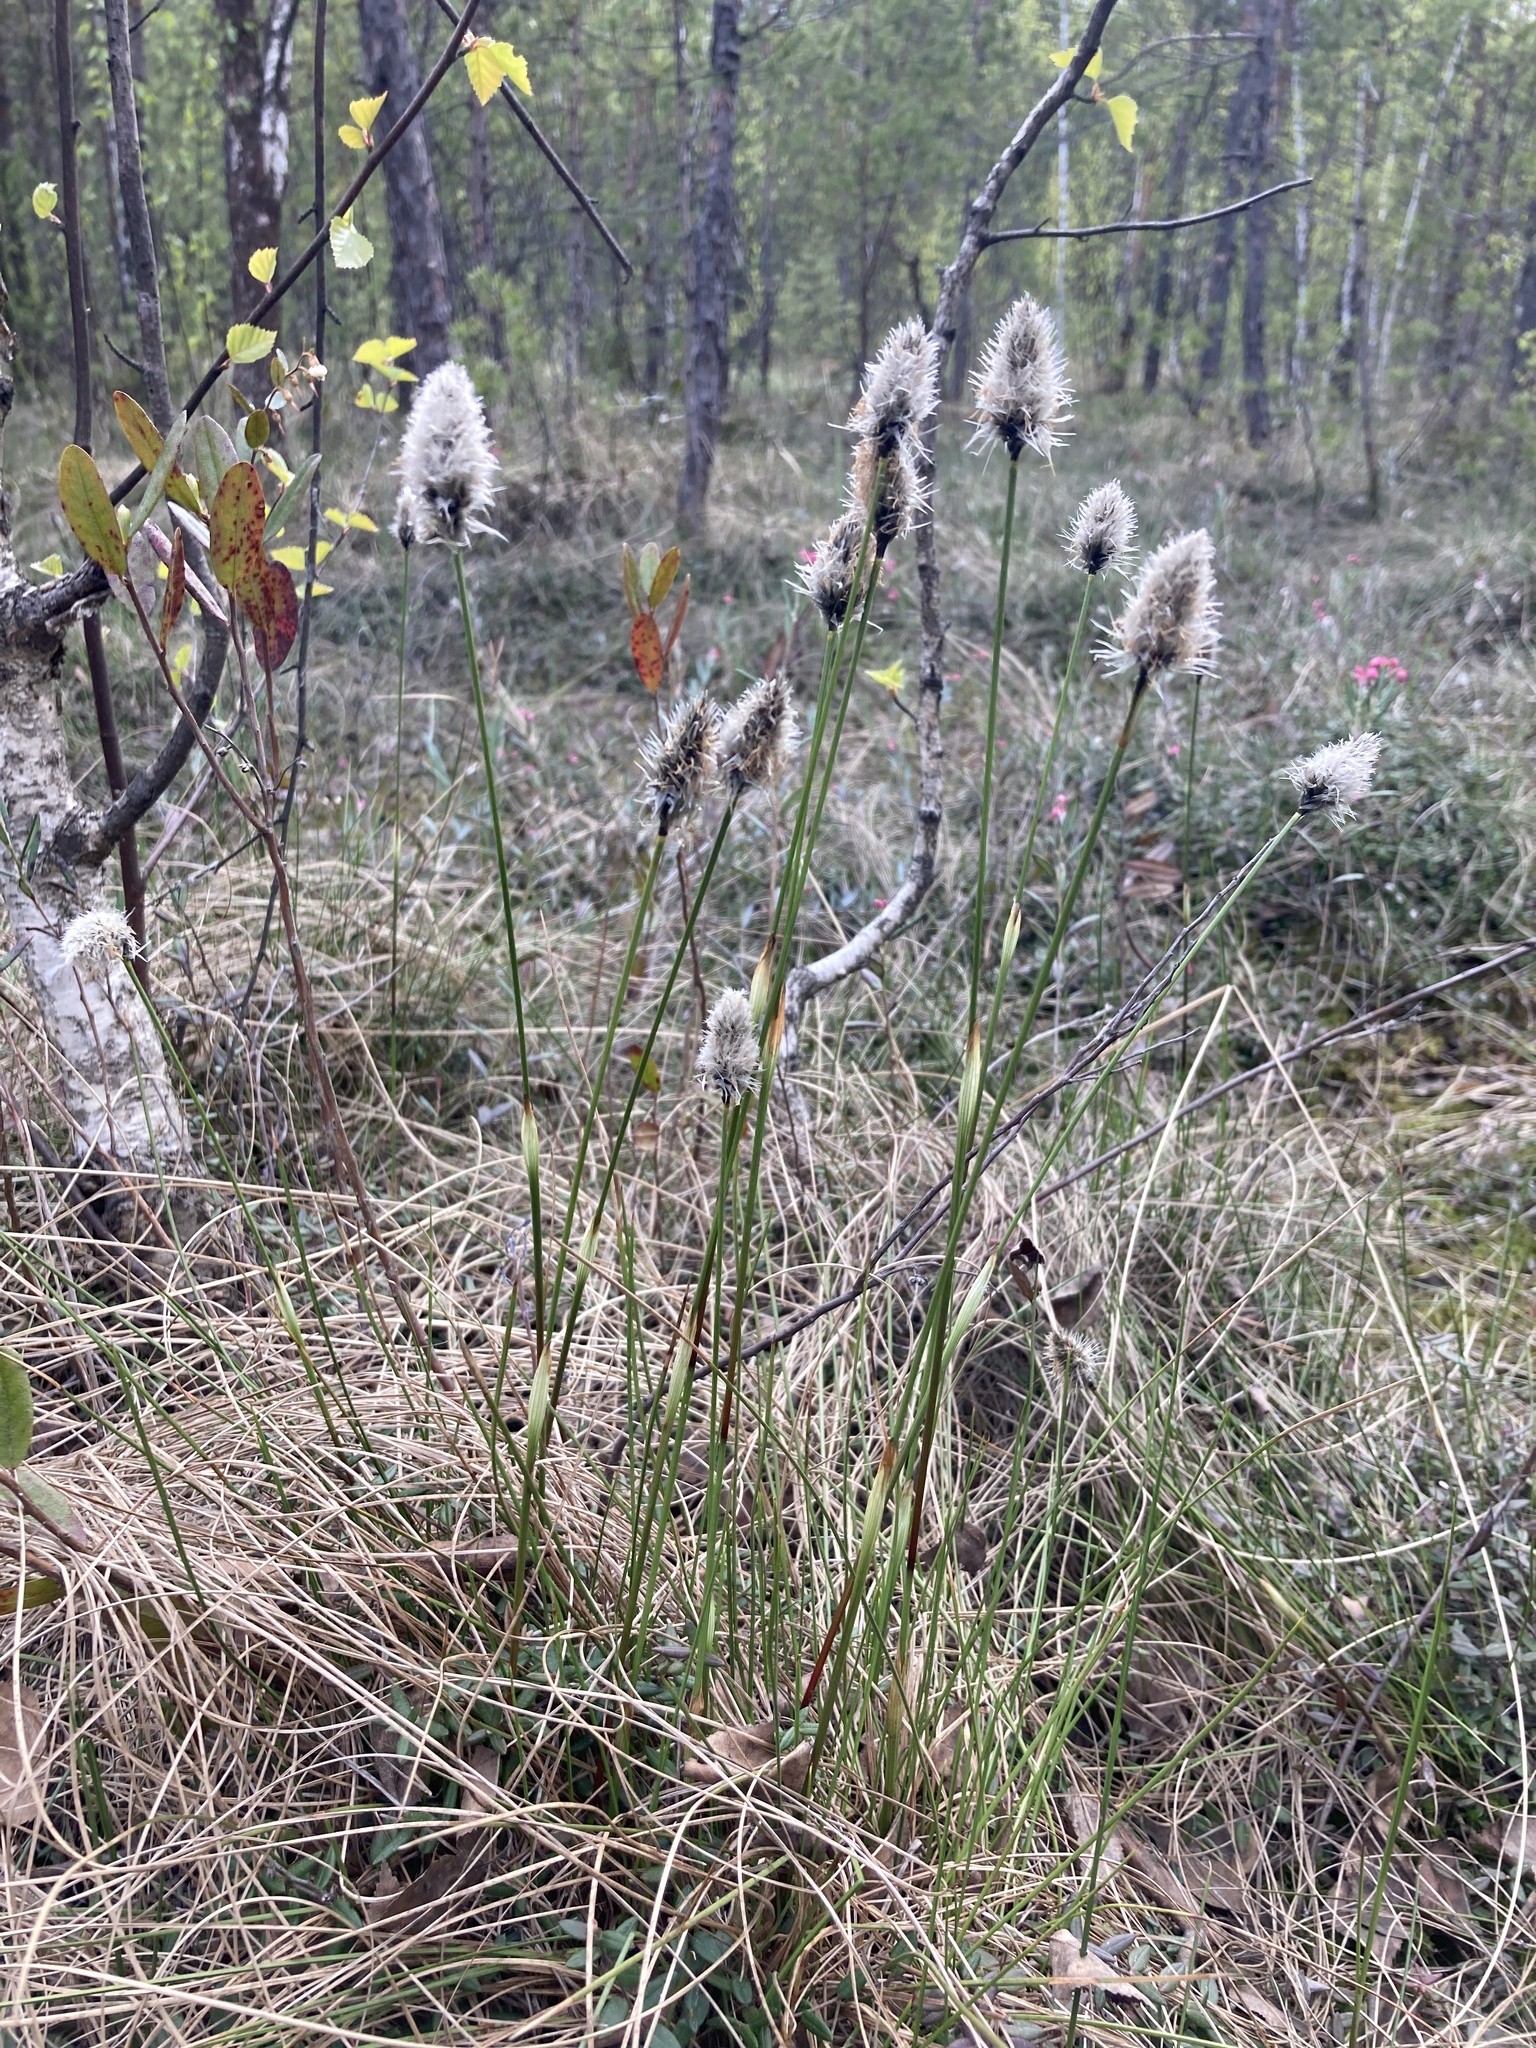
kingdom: Plantae
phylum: Tracheophyta
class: Liliopsida
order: Poales
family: Cyperaceae
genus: Eriophorum
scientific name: Eriophorum vaginatum
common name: Hare's-tail cottongrass
